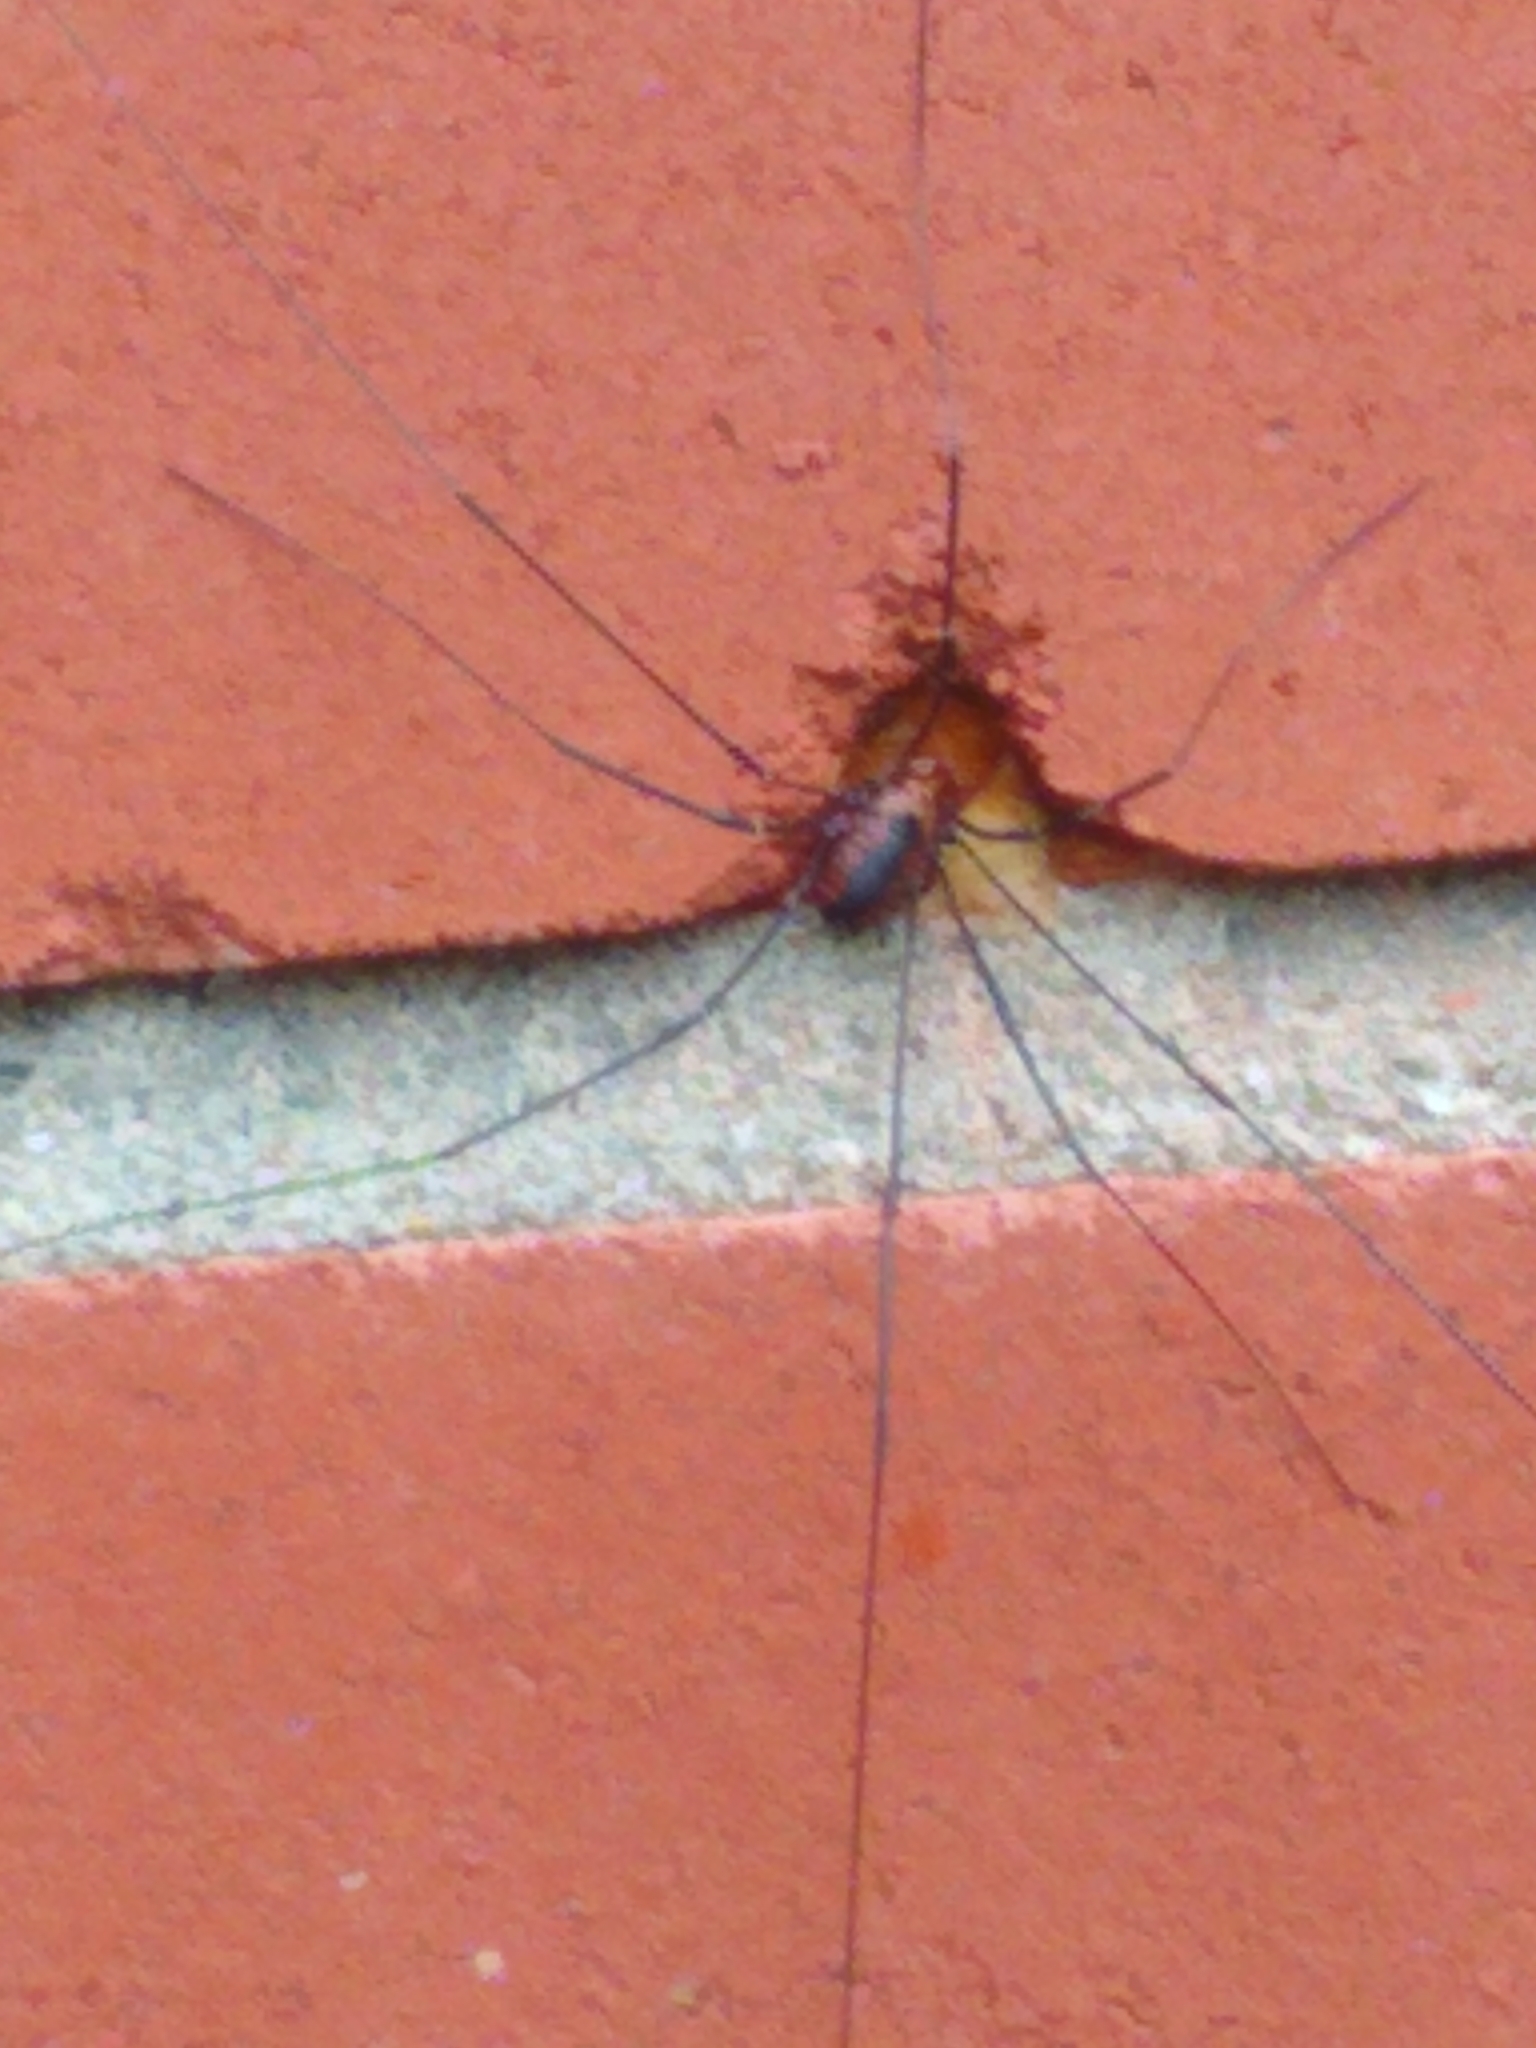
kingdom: Animalia
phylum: Arthropoda
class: Arachnida
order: Opiliones
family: Sclerosomatidae
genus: Leiobunum
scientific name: Leiobunum vittatum
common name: Eastern harvestman
